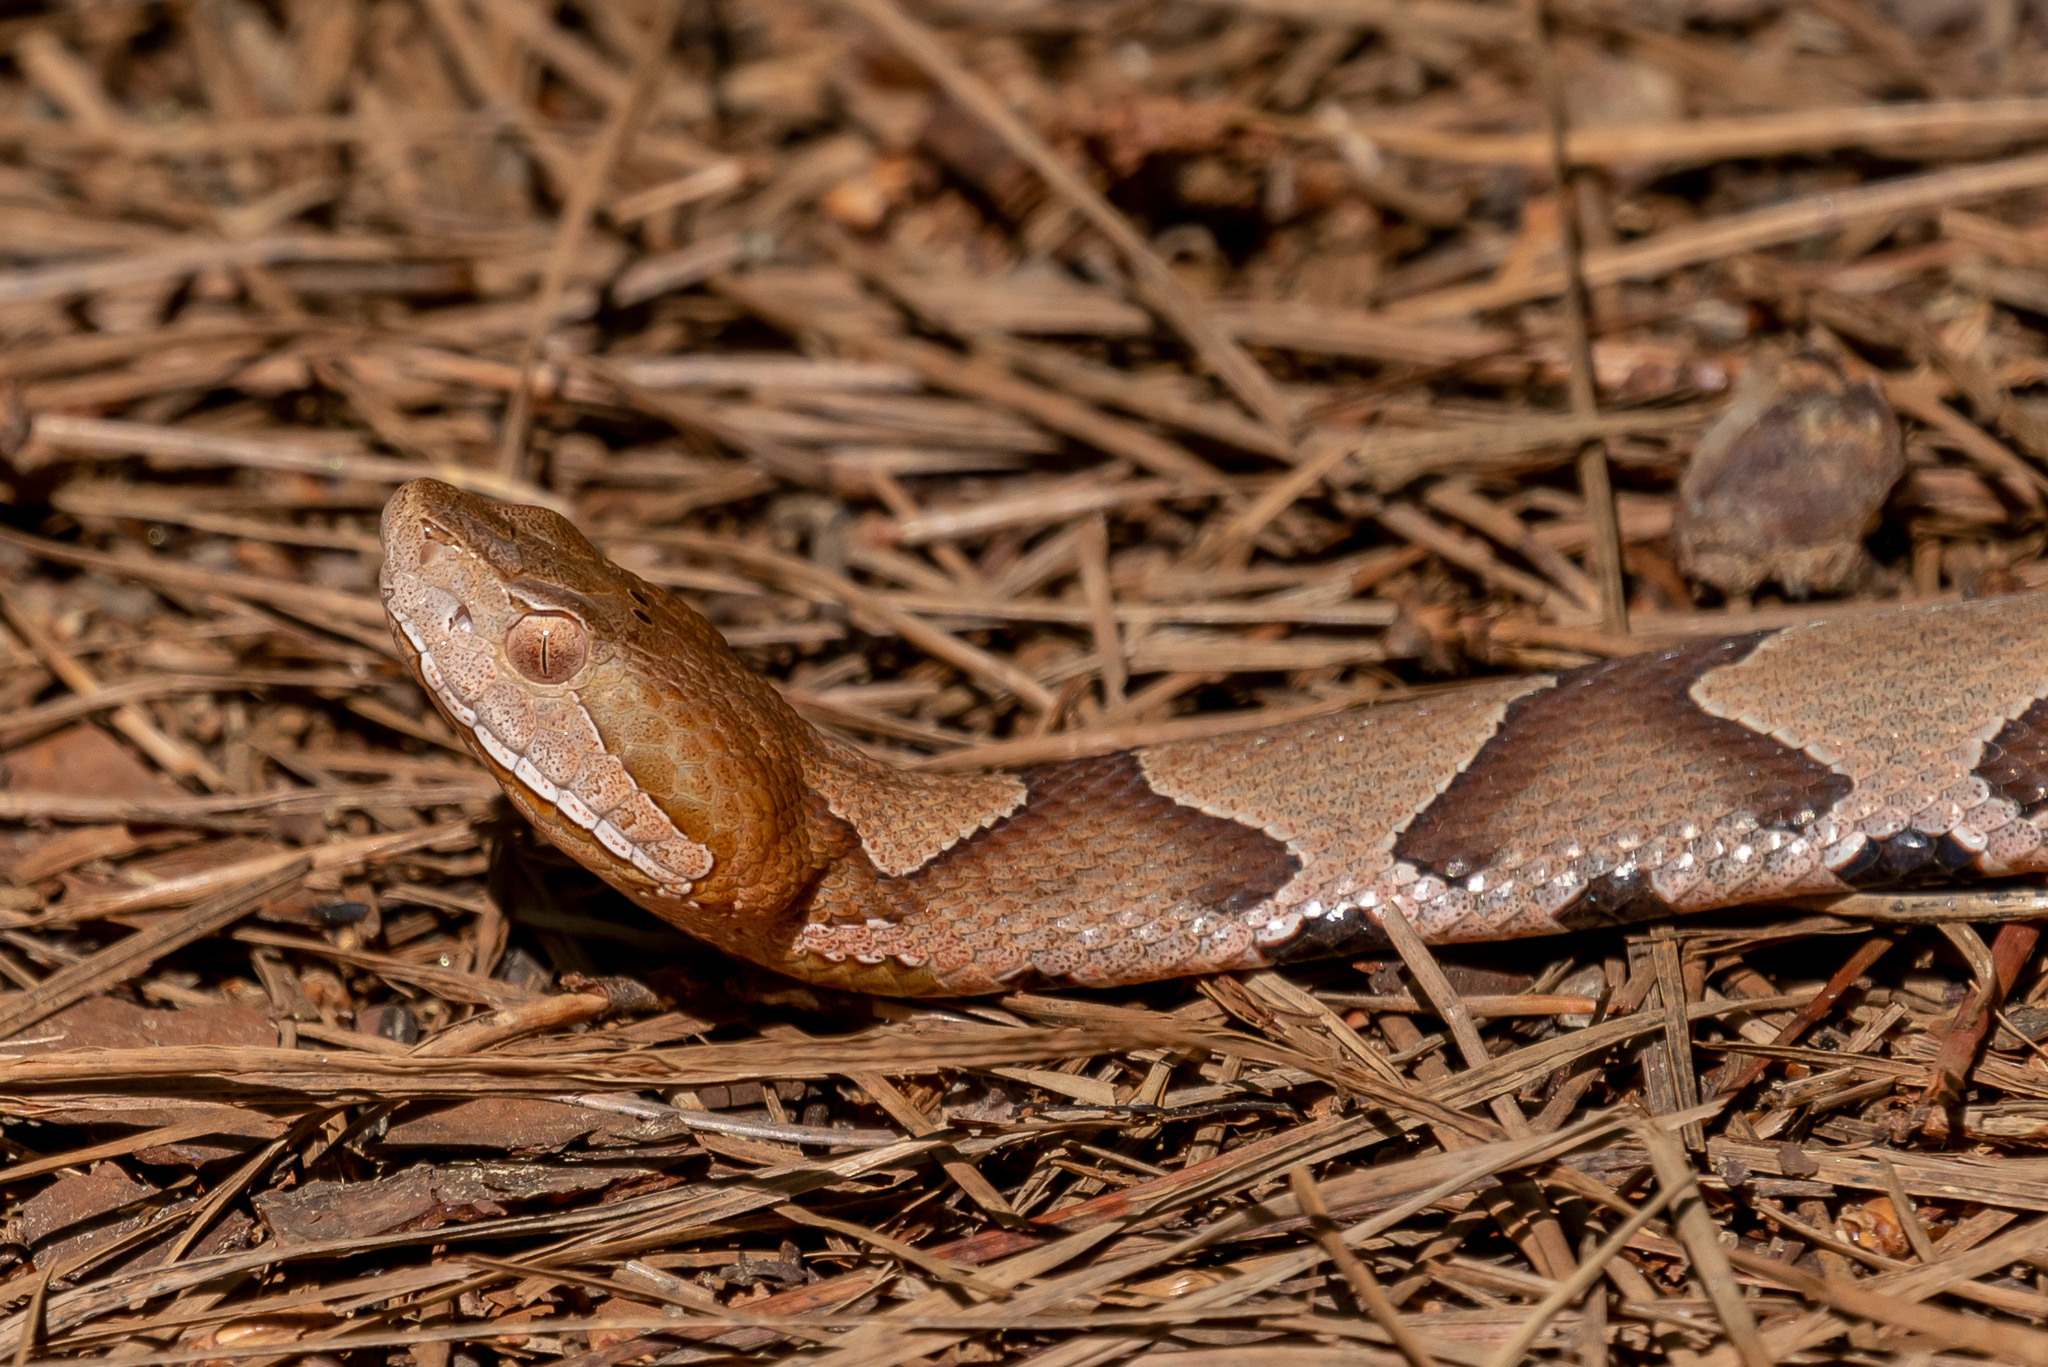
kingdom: Animalia
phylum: Chordata
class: Squamata
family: Viperidae
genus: Agkistrodon
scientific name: Agkistrodon contortrix
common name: Northern copperhead
